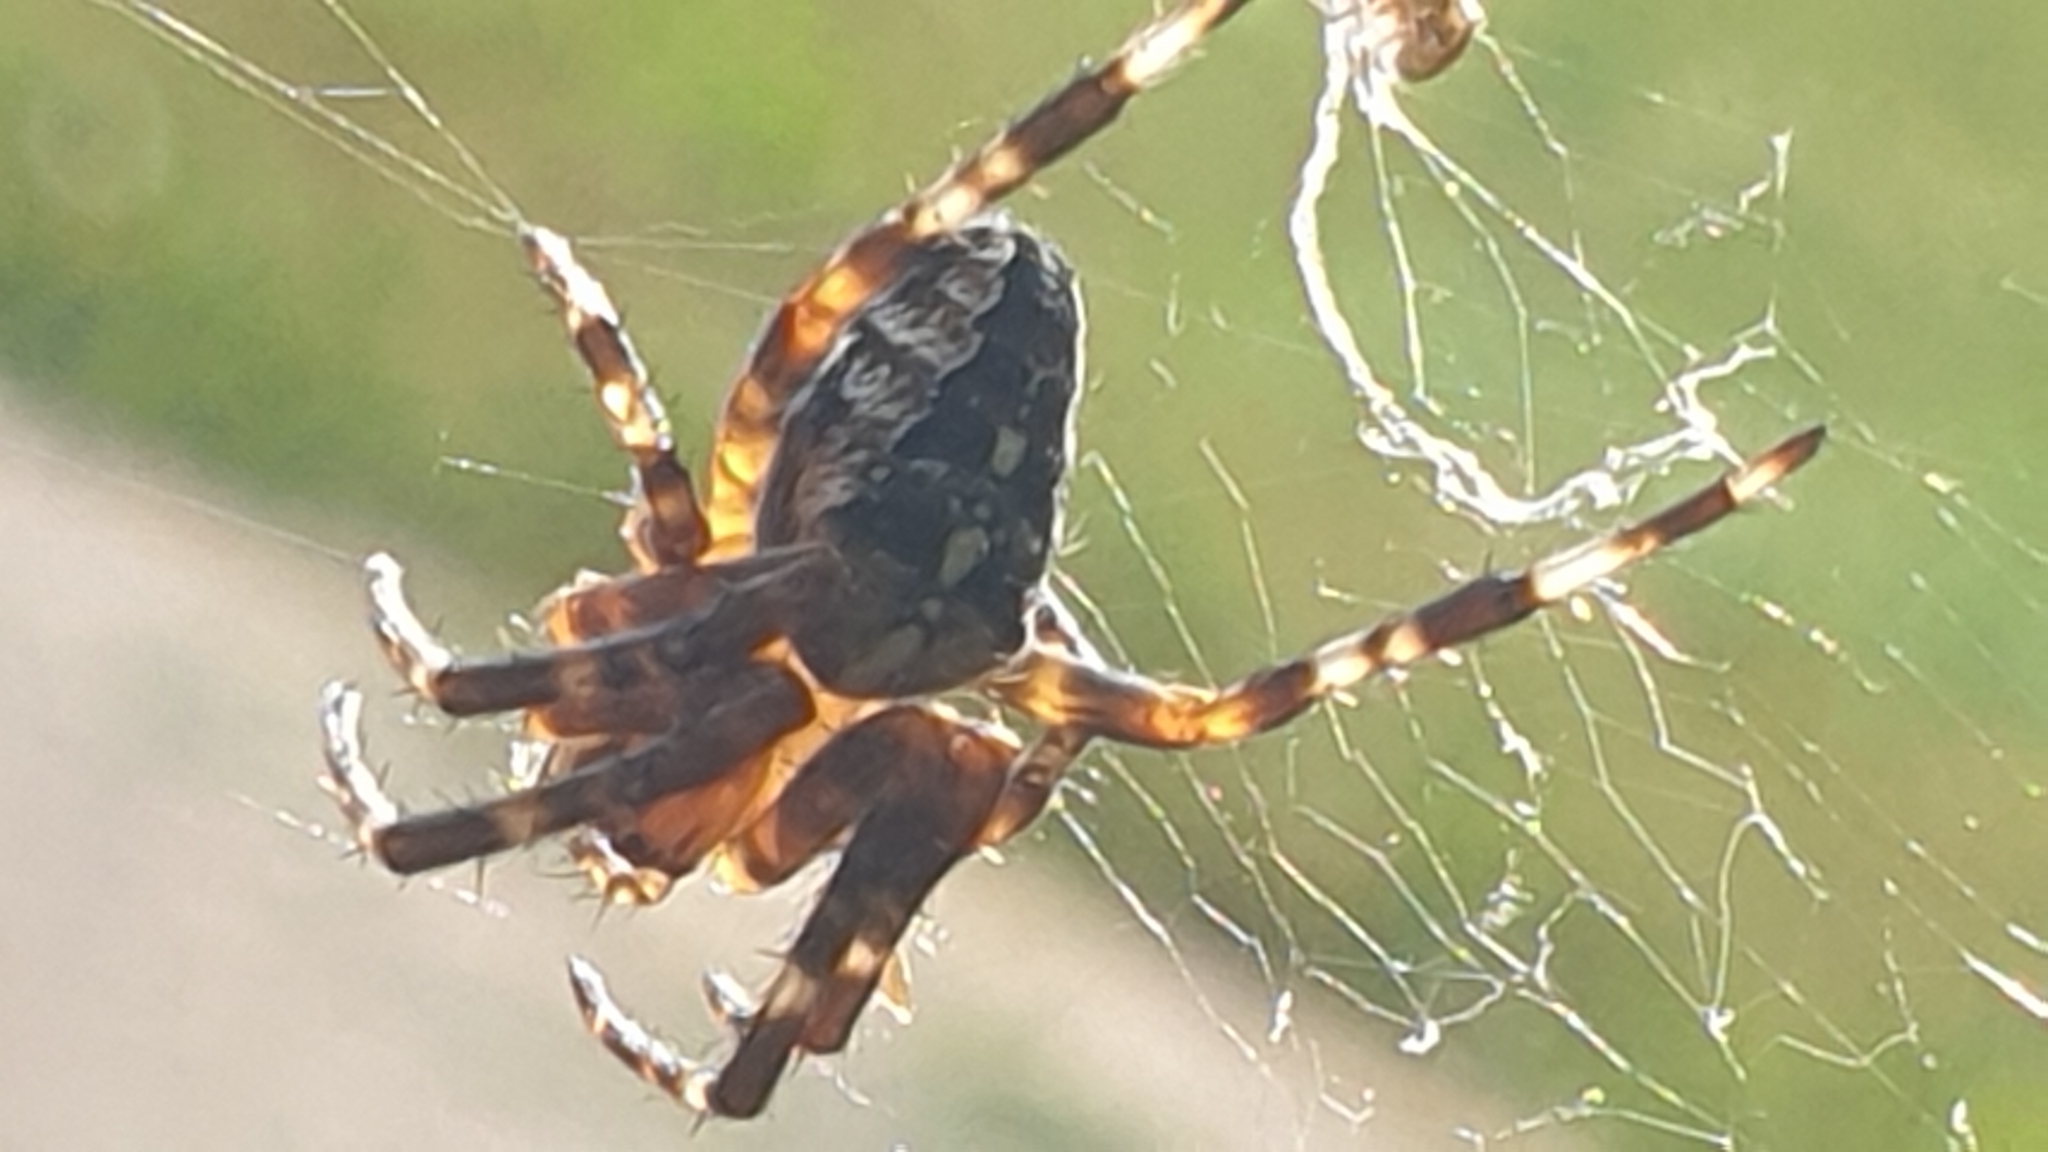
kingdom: Animalia
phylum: Arthropoda
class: Arachnida
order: Araneae
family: Araneidae
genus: Araneus
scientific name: Araneus diadematus
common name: Cross orbweaver
